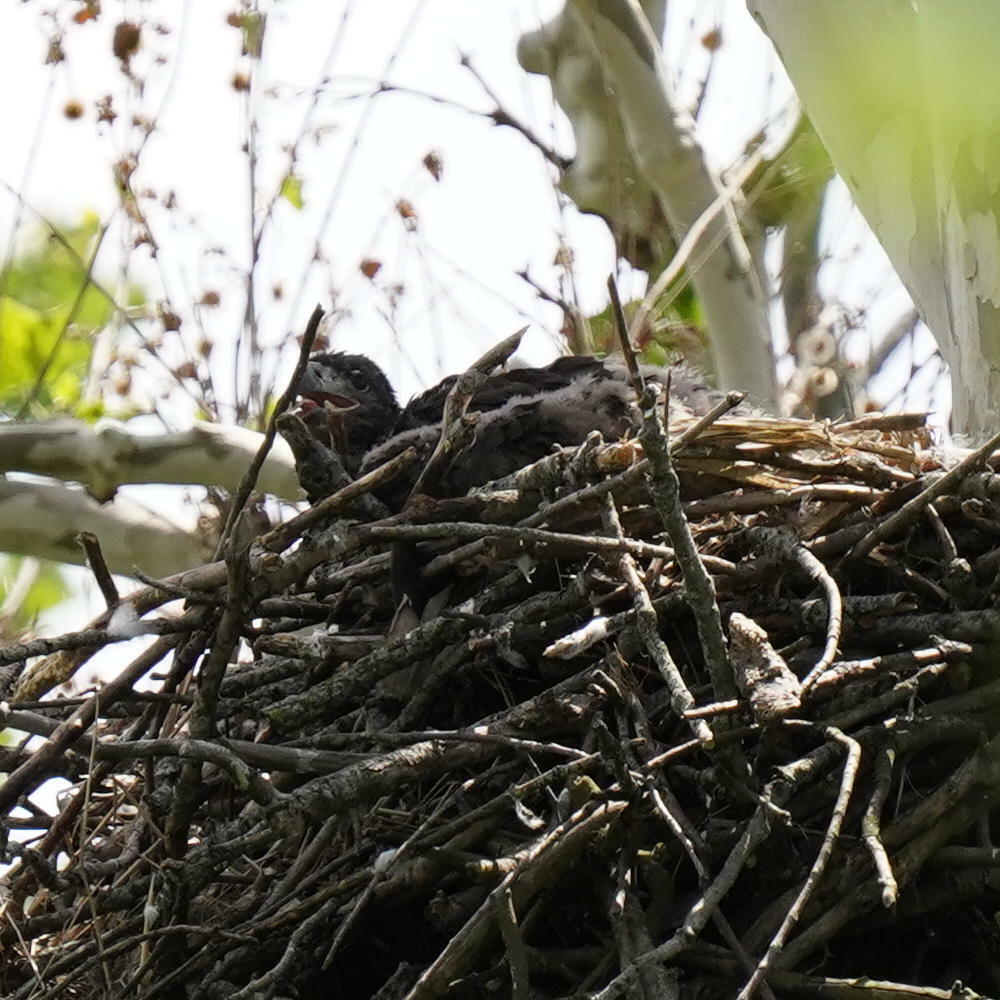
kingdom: Animalia
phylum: Chordata
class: Aves
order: Accipitriformes
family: Accipitridae
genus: Haliaeetus
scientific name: Haliaeetus leucocephalus
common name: Bald eagle
